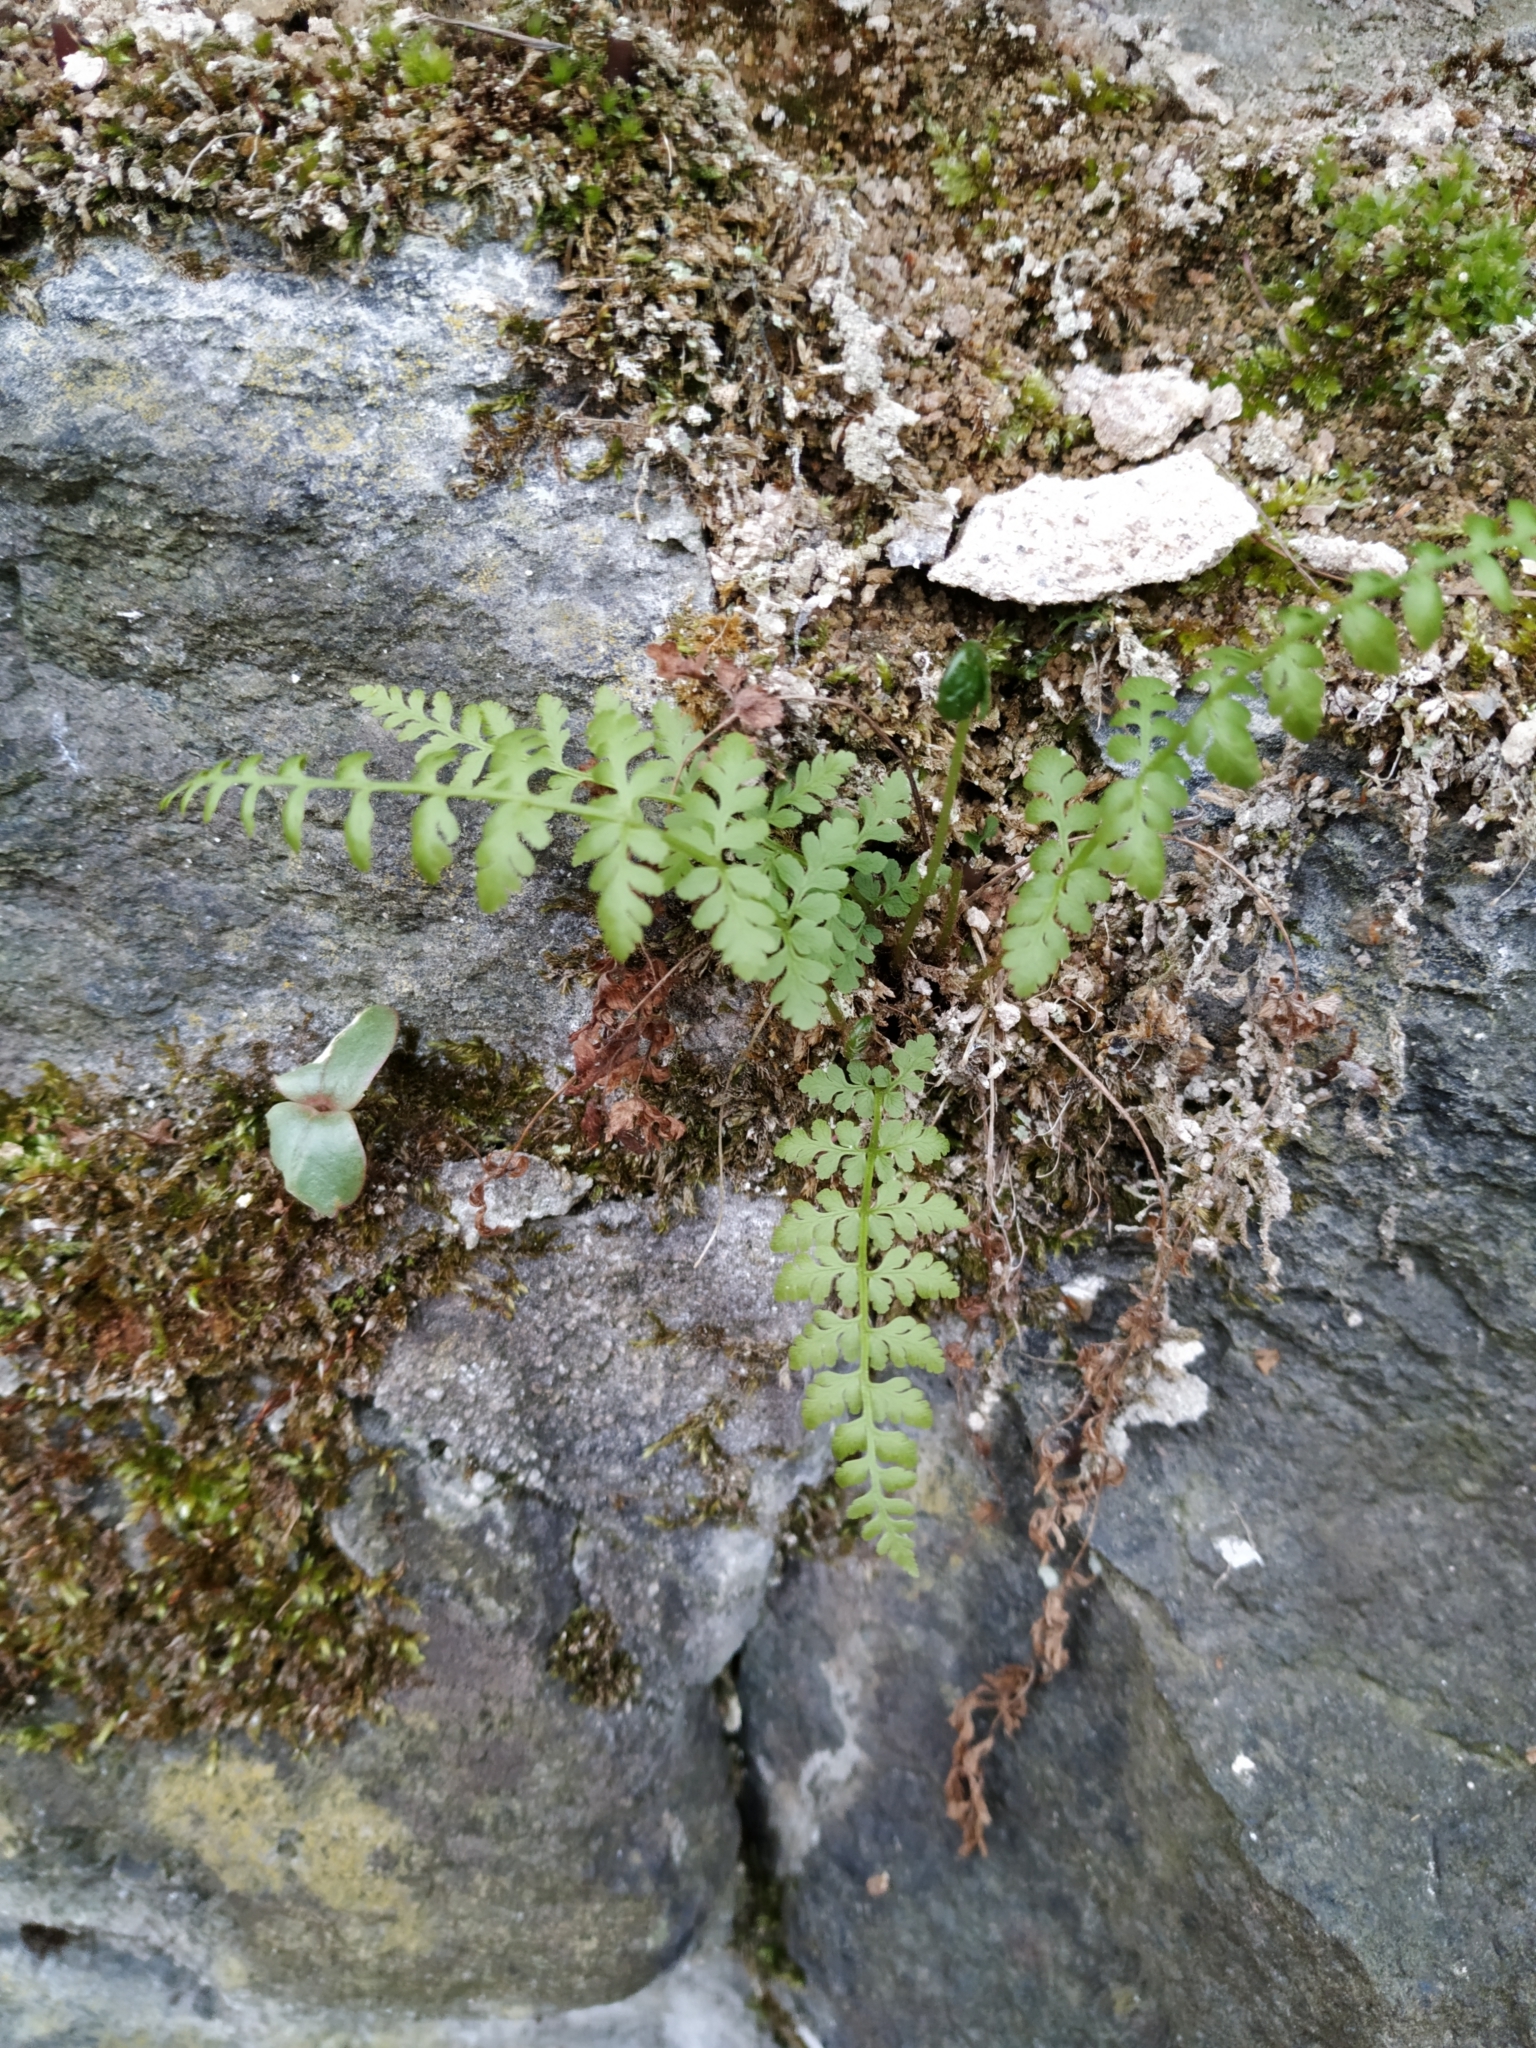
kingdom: Plantae
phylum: Tracheophyta
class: Polypodiopsida
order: Polypodiales
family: Cystopteridaceae
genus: Cystopteris
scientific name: Cystopteris fragilis
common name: Brittle bladder fern
